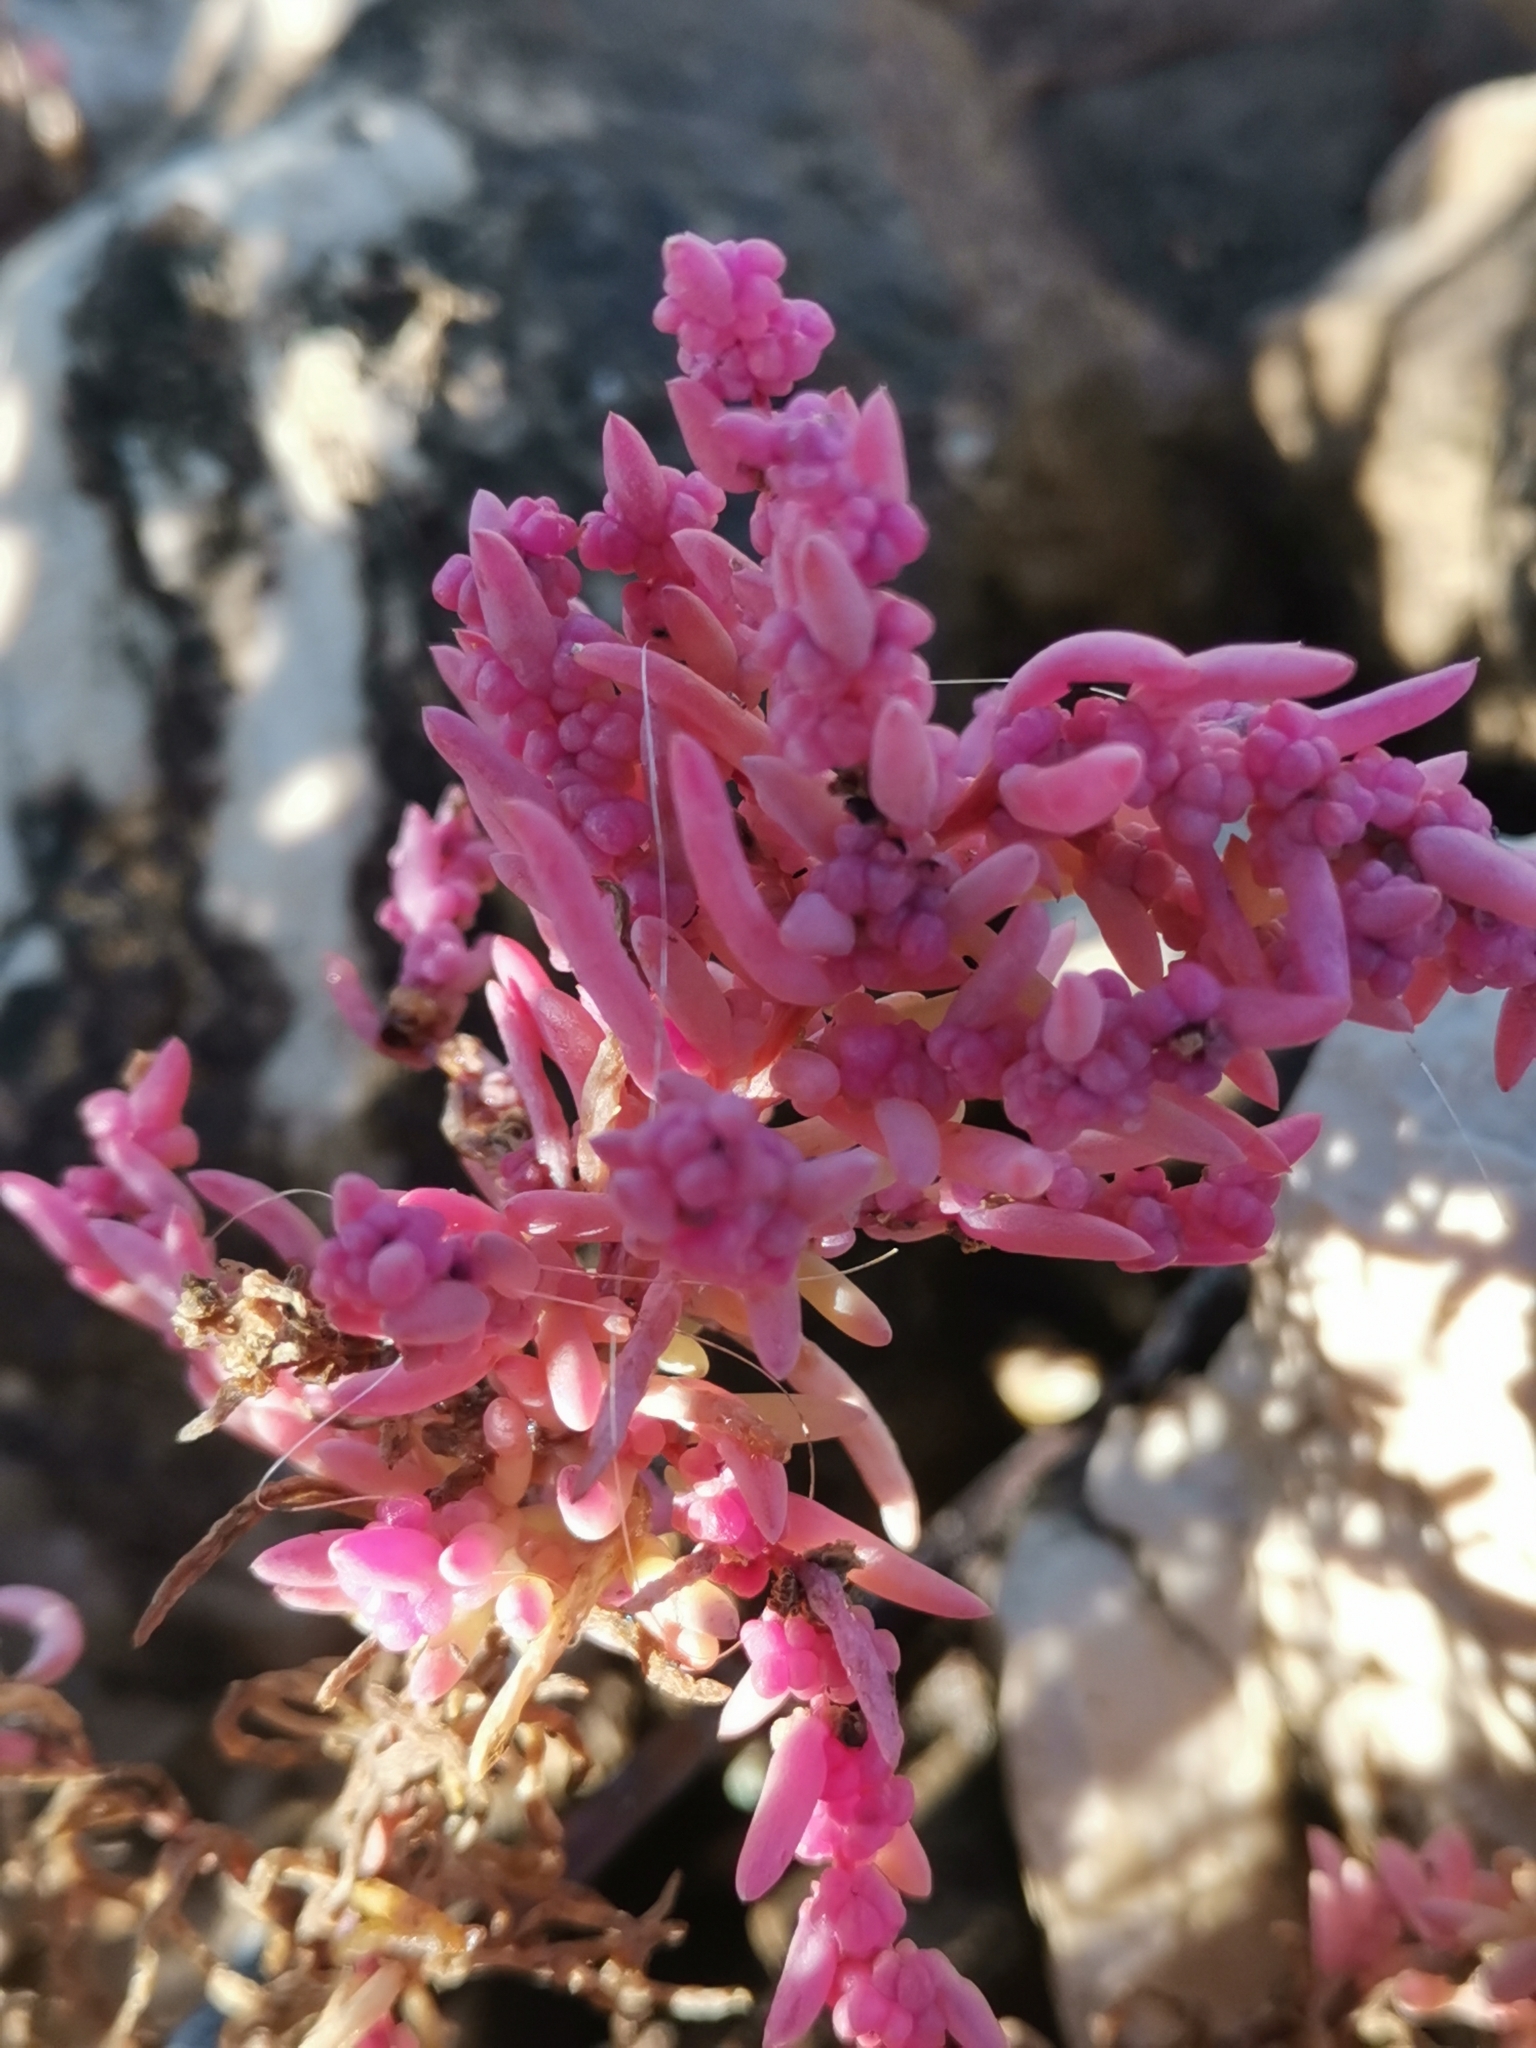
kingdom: Plantae
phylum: Tracheophyta
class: Magnoliopsida
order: Caryophyllales
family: Amaranthaceae
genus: Suaeda
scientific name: Suaeda maritima
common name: Annual sea-blite
